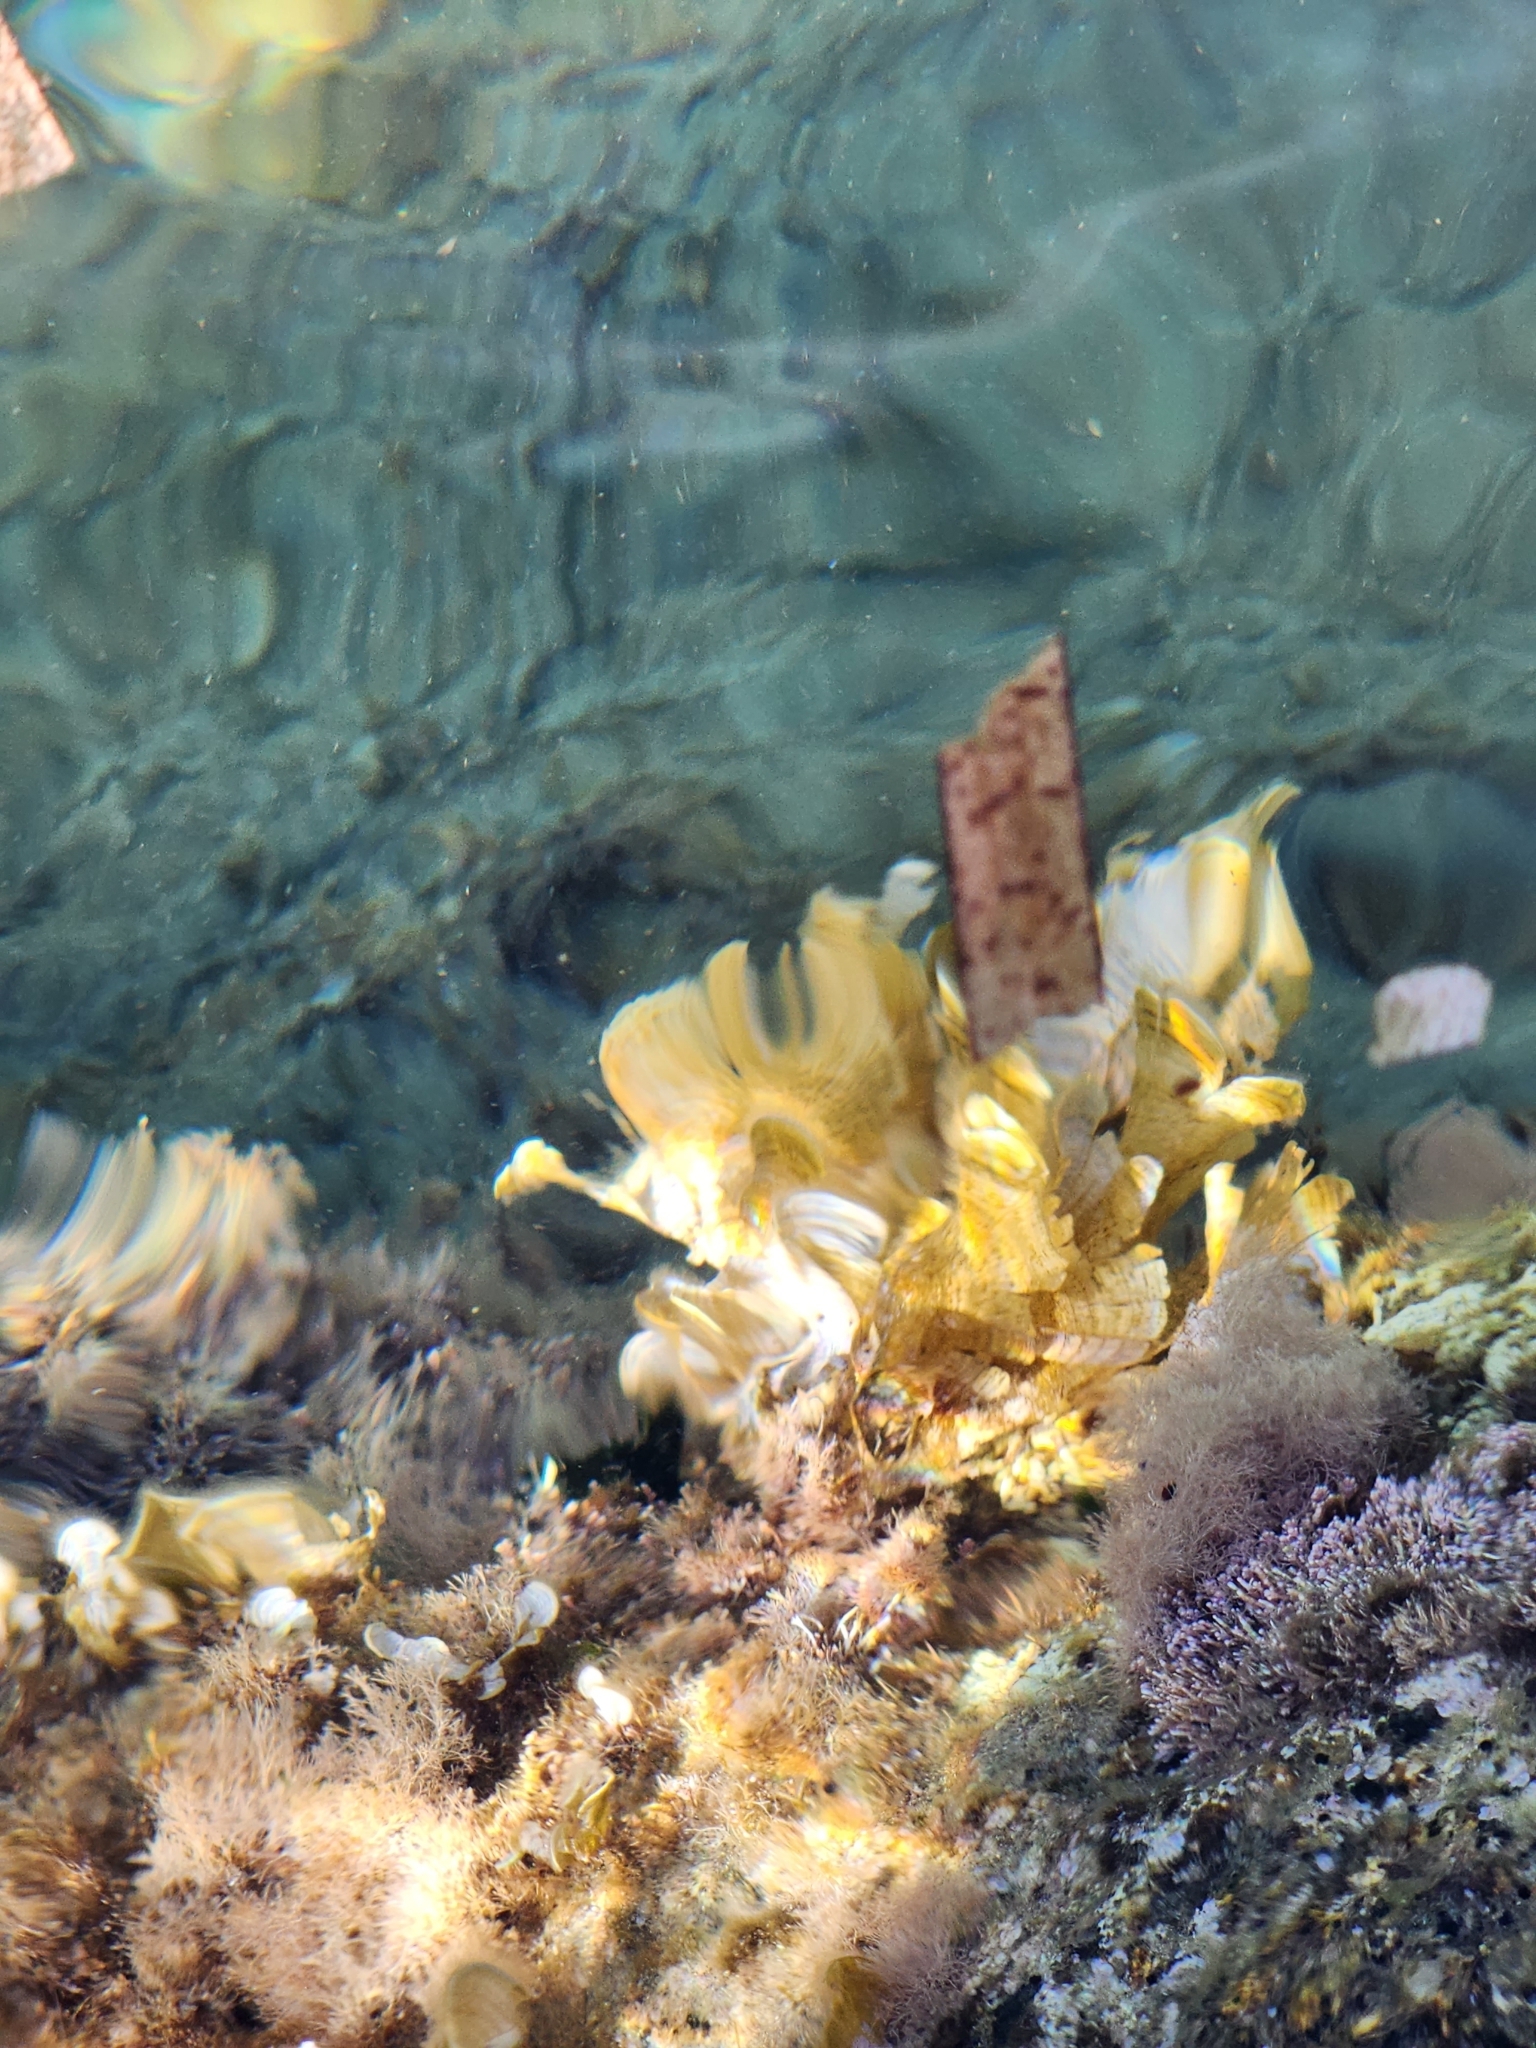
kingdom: Chromista
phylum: Ochrophyta
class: Phaeophyceae
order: Dictyotales
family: Dictyotaceae
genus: Padina
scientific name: Padina
